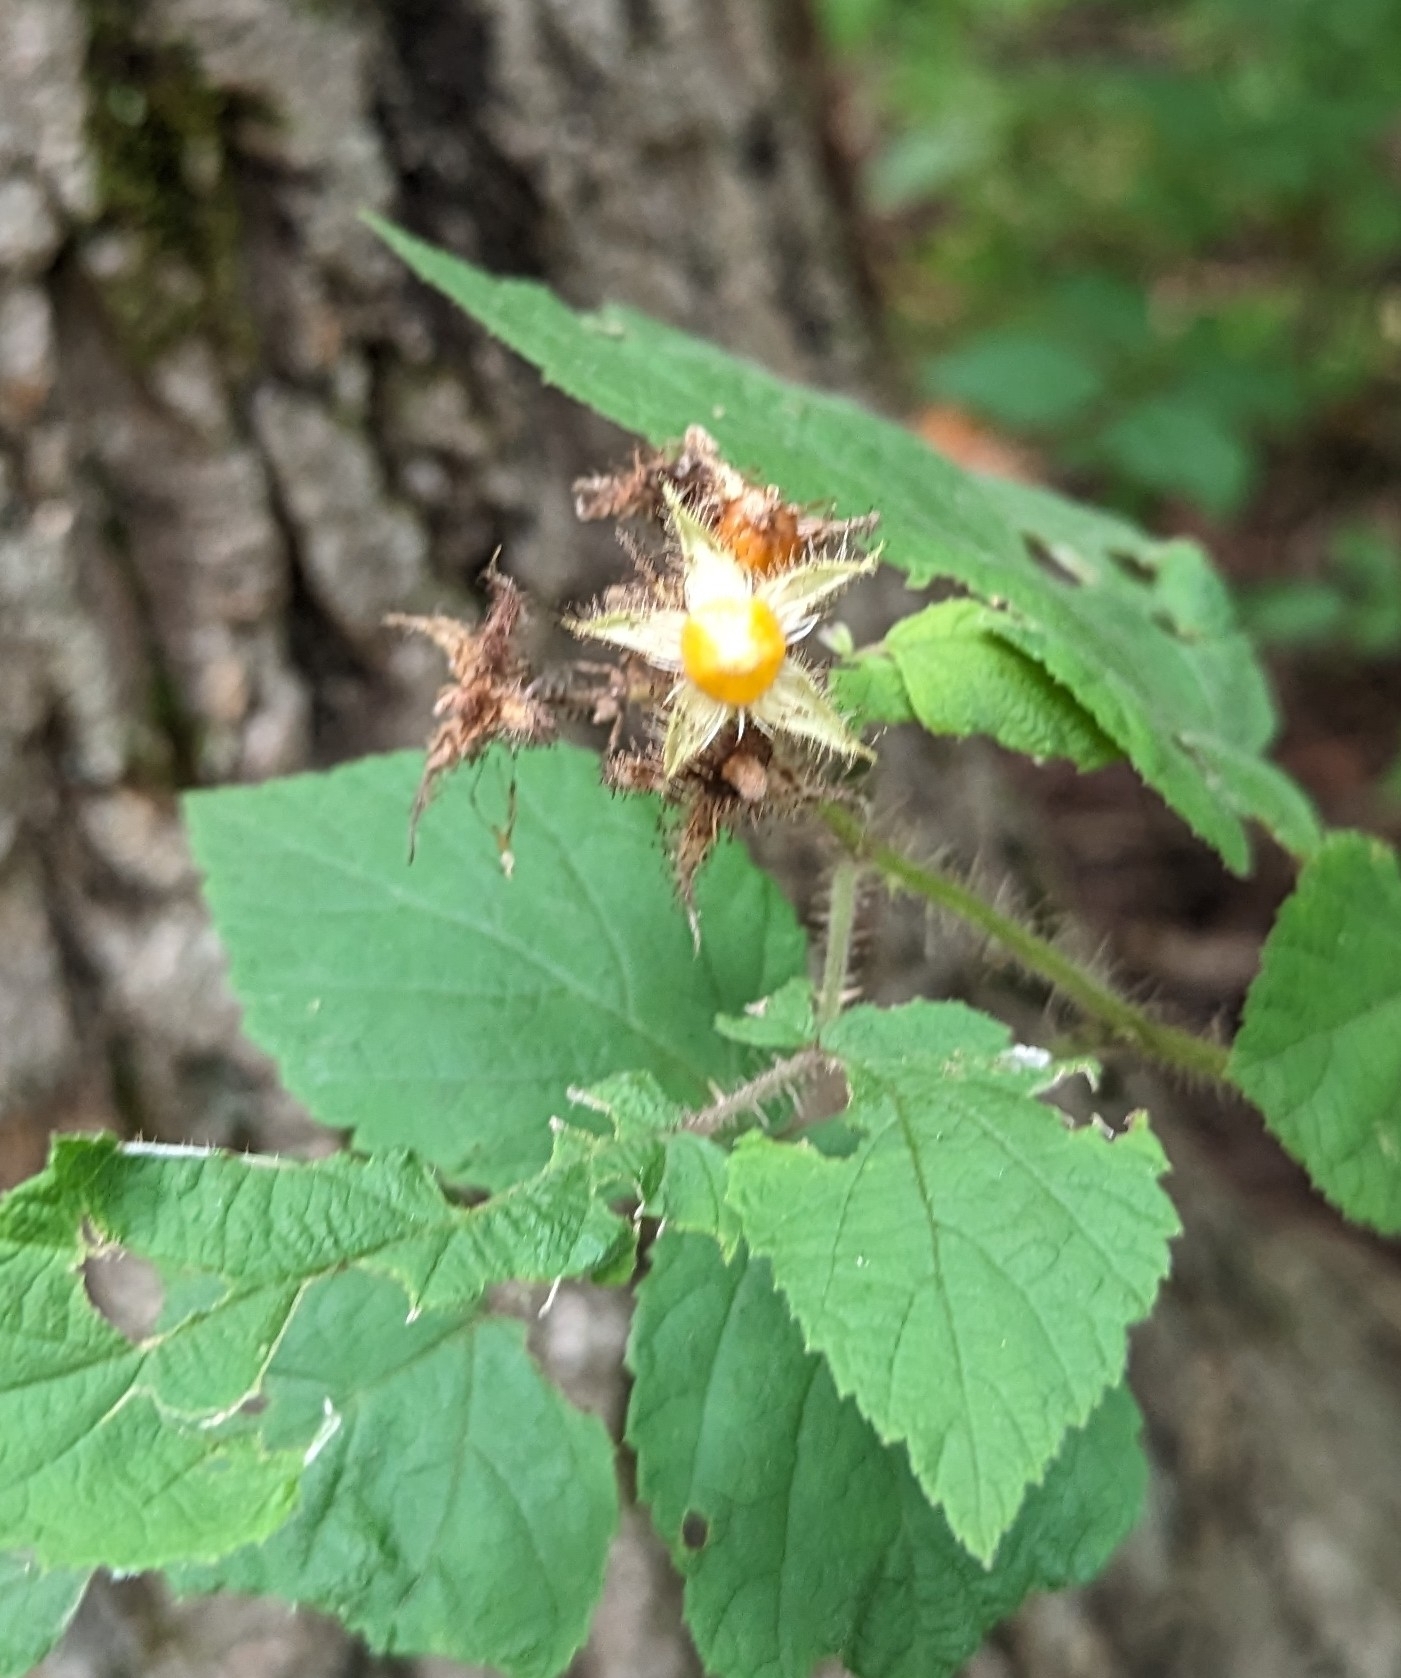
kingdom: Plantae
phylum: Tracheophyta
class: Magnoliopsida
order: Rosales
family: Rosaceae
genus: Rubus
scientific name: Rubus phoenicolasius
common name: Japanese wineberry
